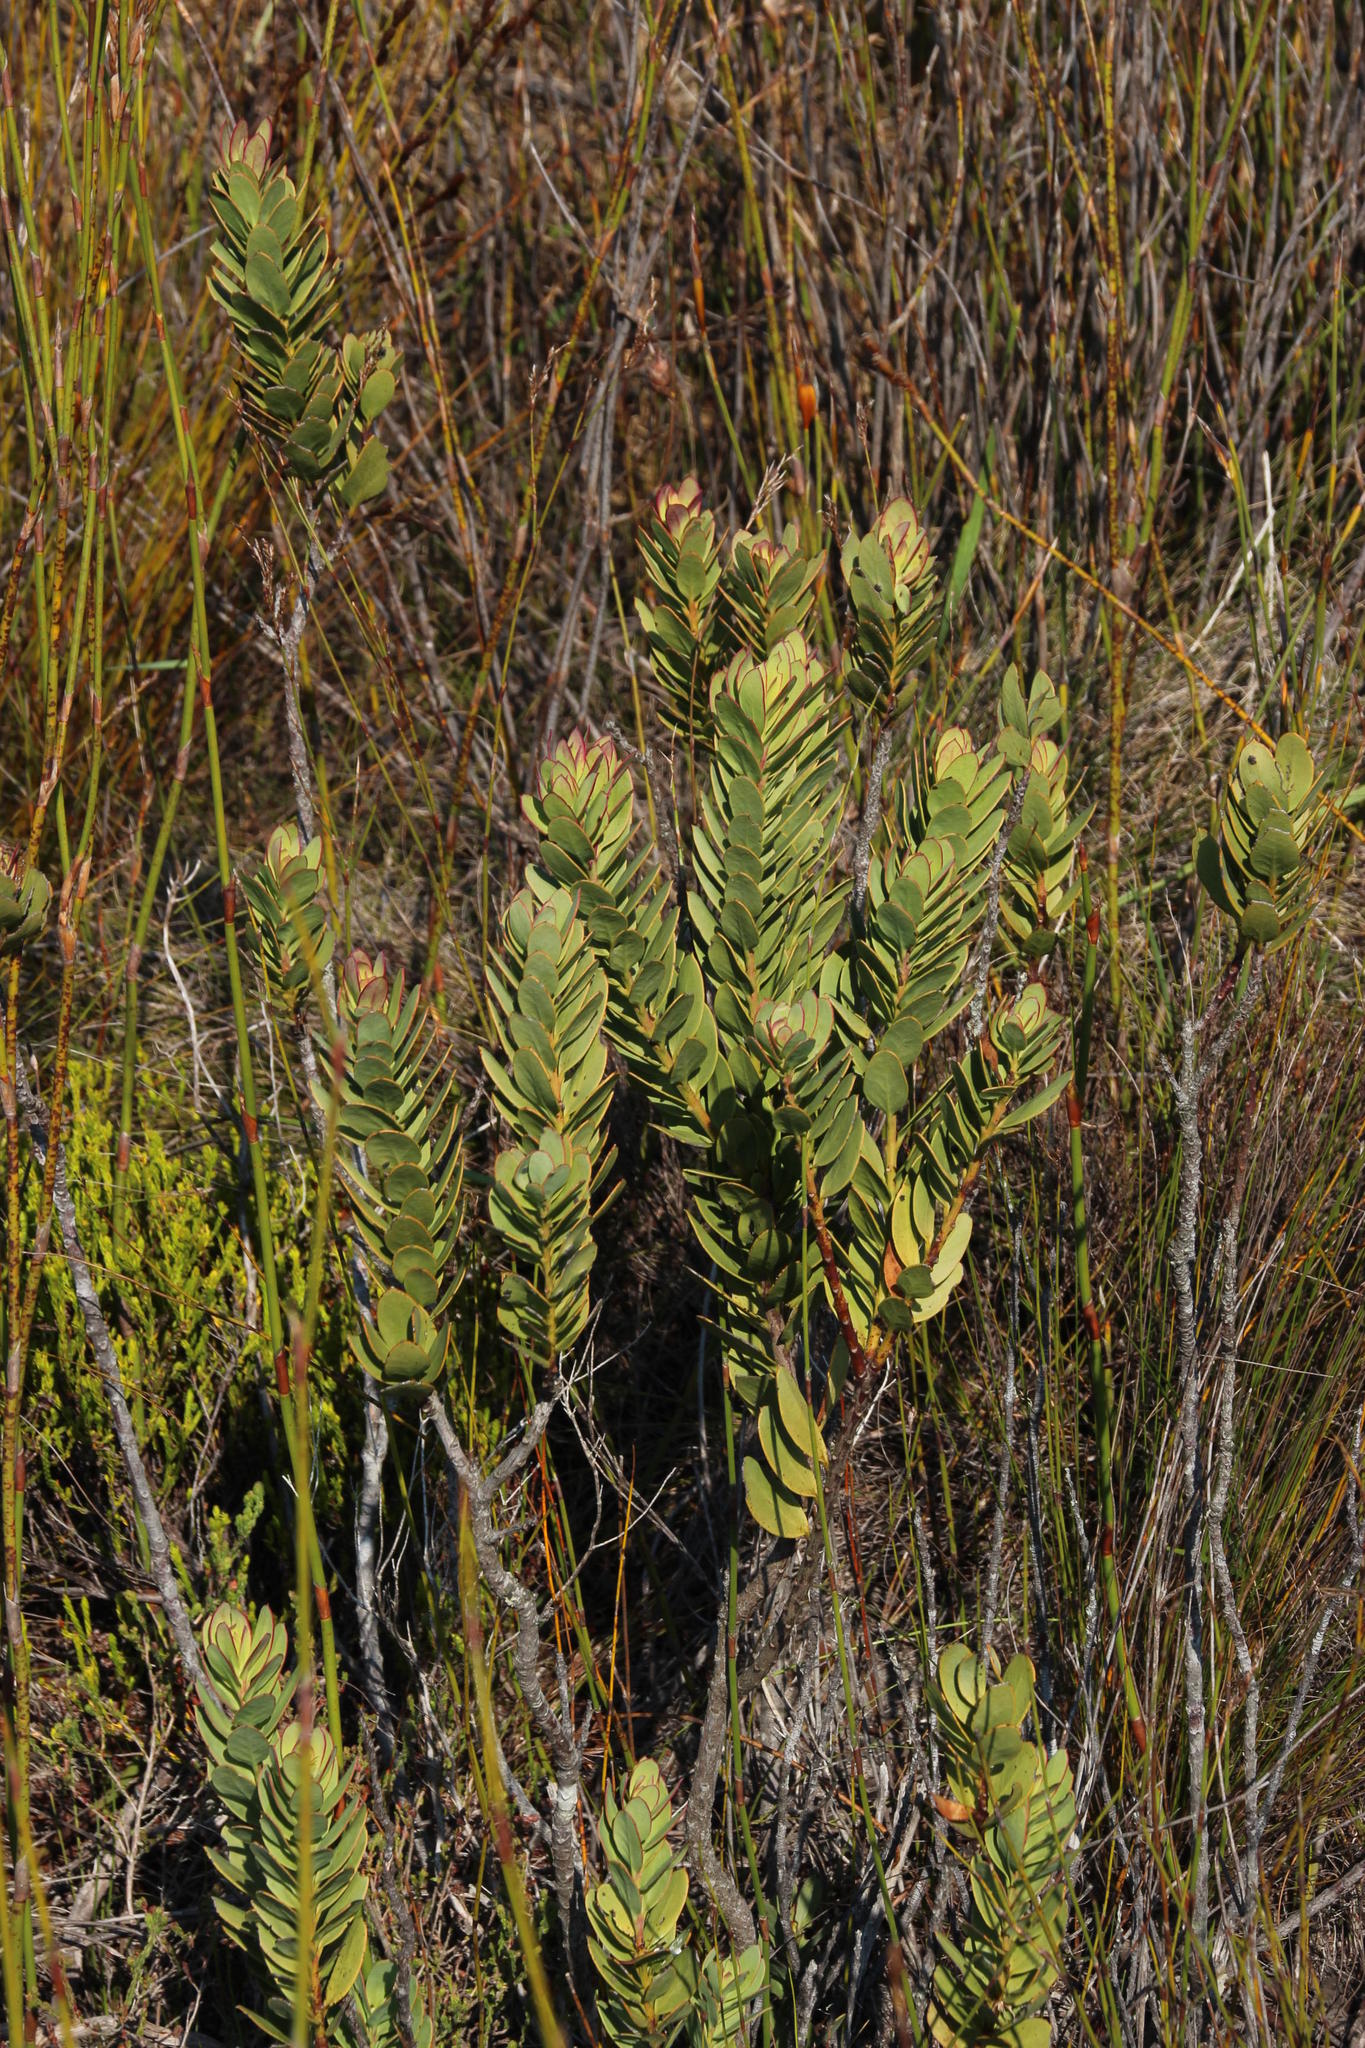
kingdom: Plantae
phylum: Tracheophyta
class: Magnoliopsida
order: Santalales
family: Santalaceae
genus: Osyris
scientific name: Osyris compressa
